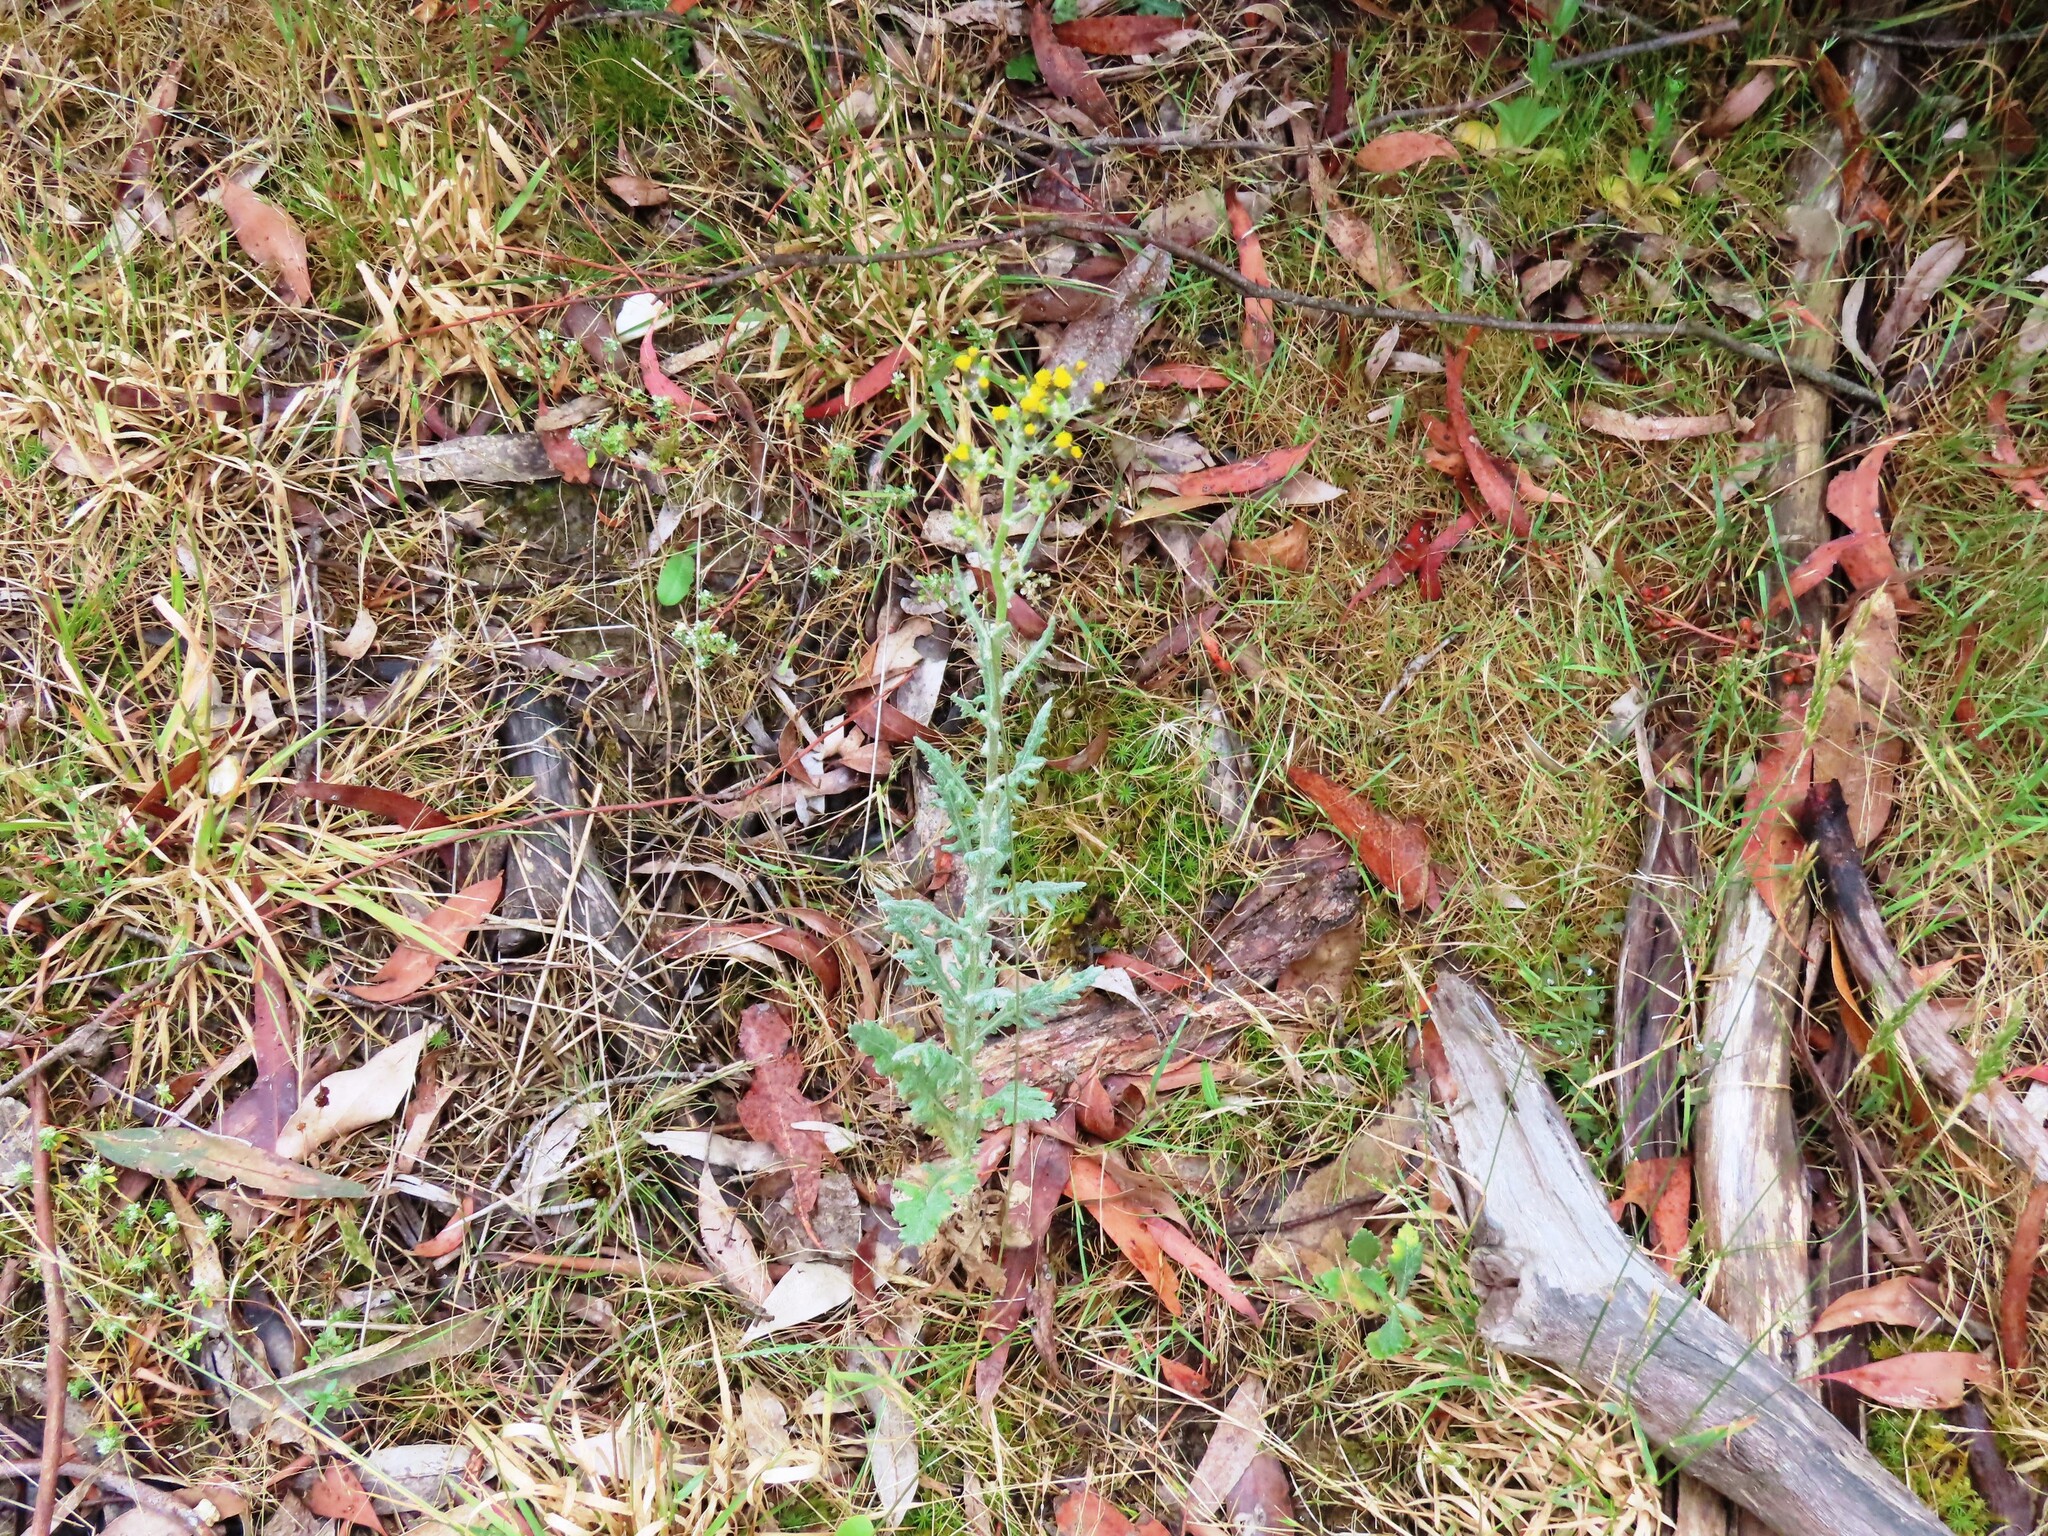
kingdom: Plantae
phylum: Tracheophyta
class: Magnoliopsida
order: Asterales
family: Asteraceae
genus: Senecio
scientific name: Senecio glomeratus
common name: Cutleaf burnweed
